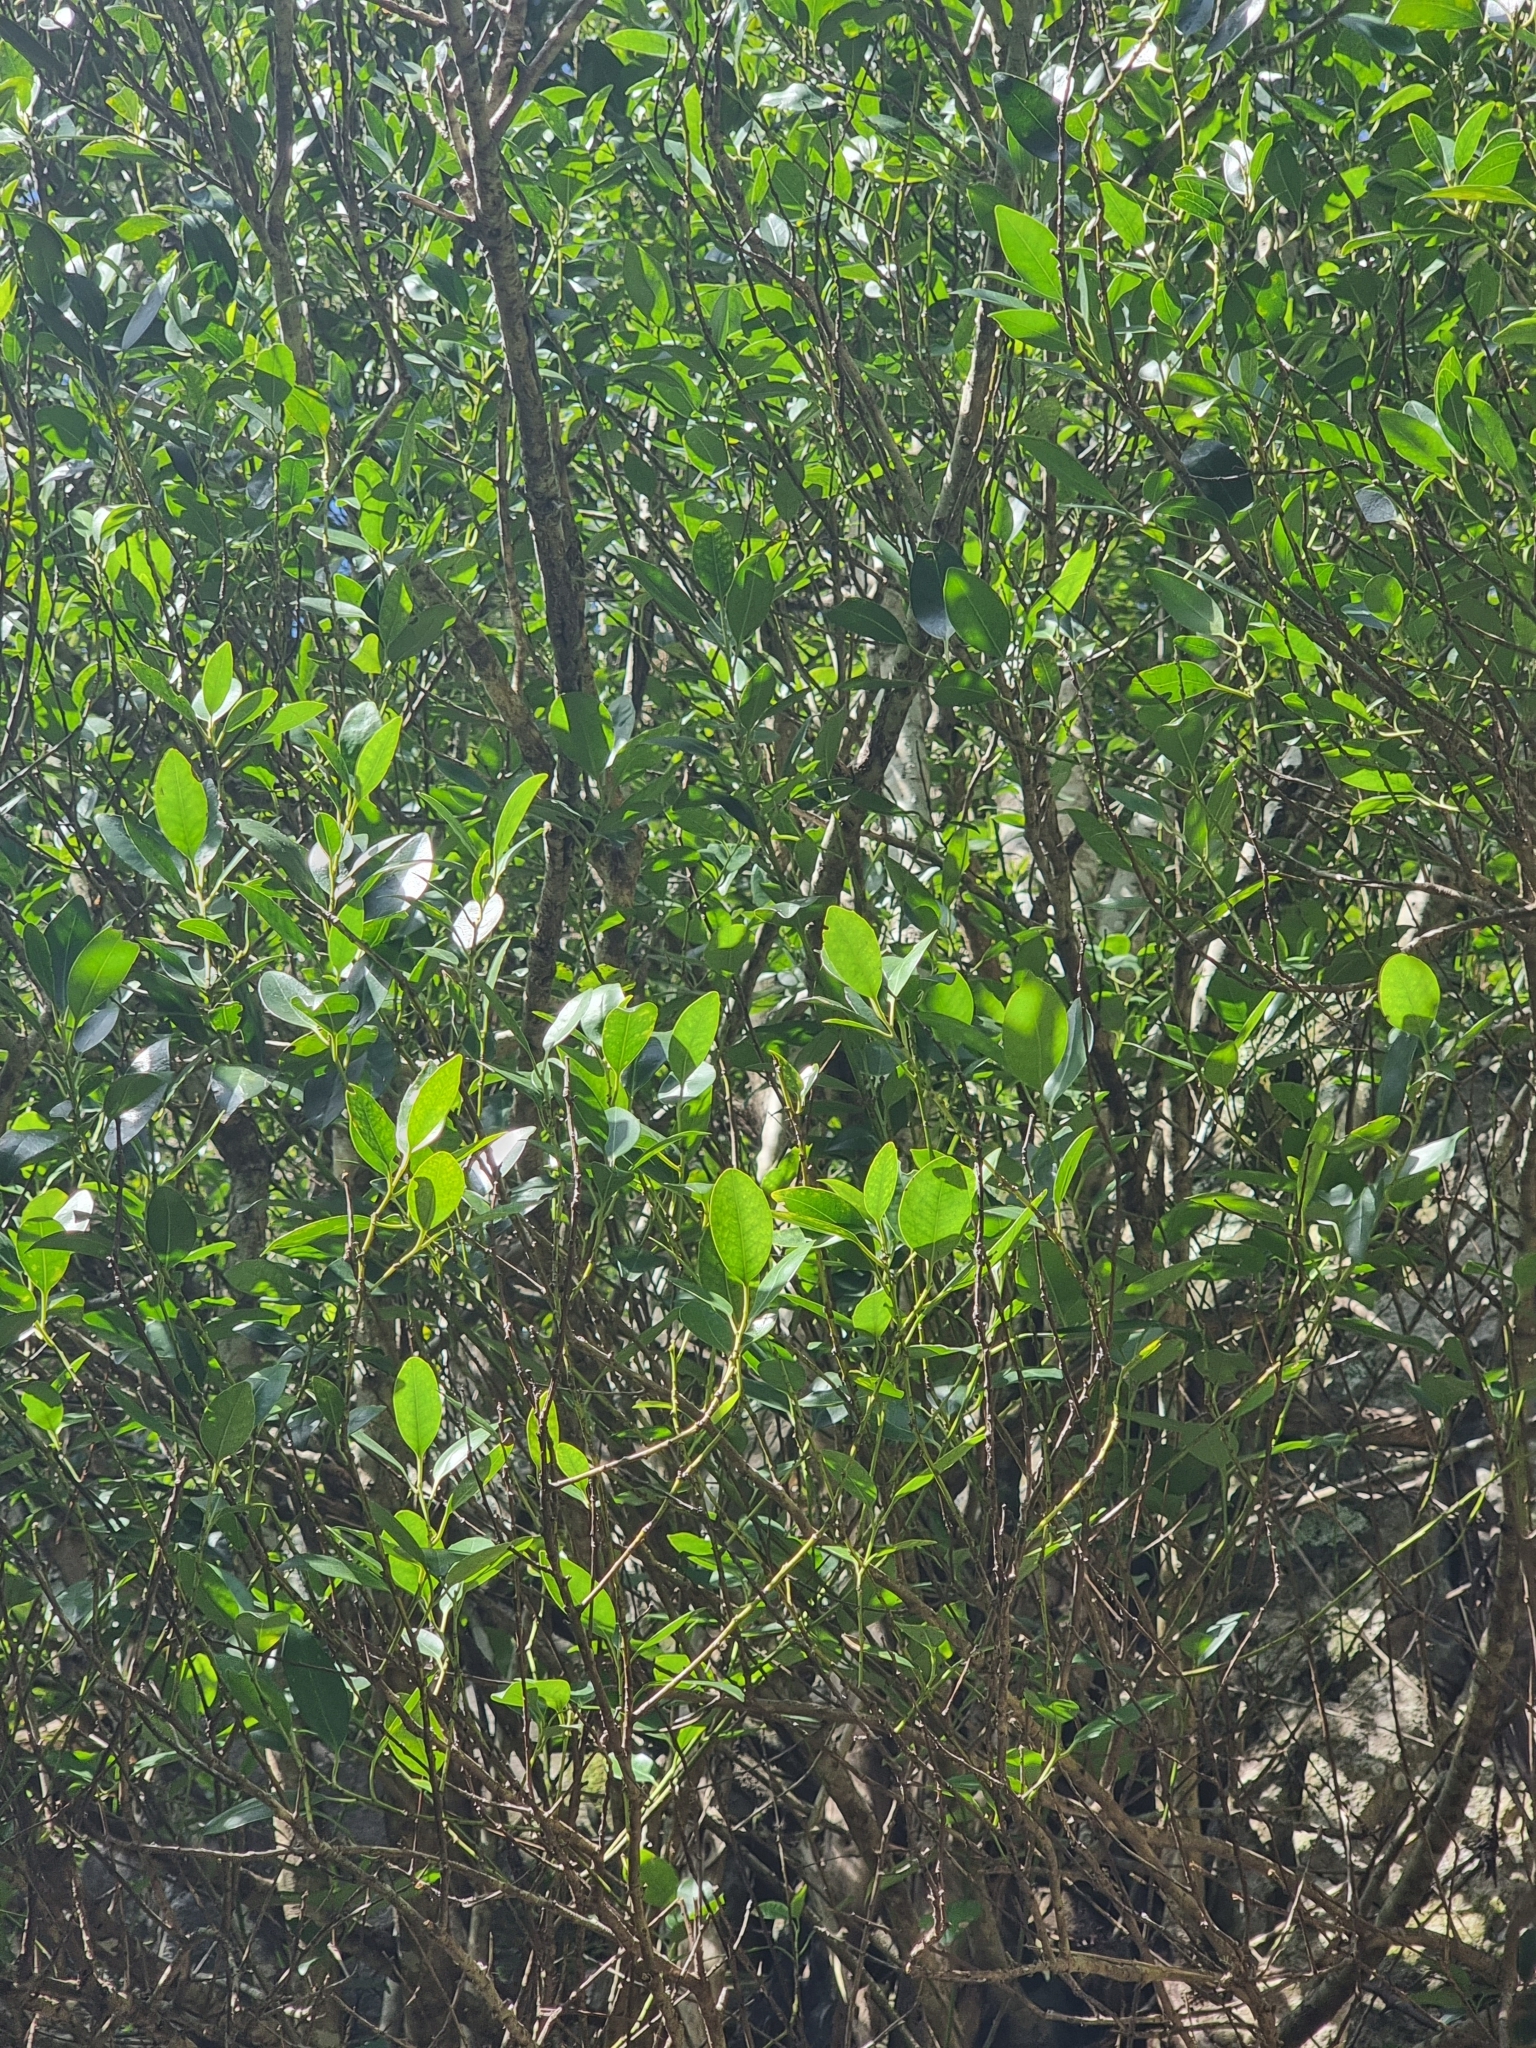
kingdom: Plantae
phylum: Tracheophyta
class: Magnoliopsida
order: Aquifoliales
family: Aquifoliaceae
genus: Ilex
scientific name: Ilex canariensis
